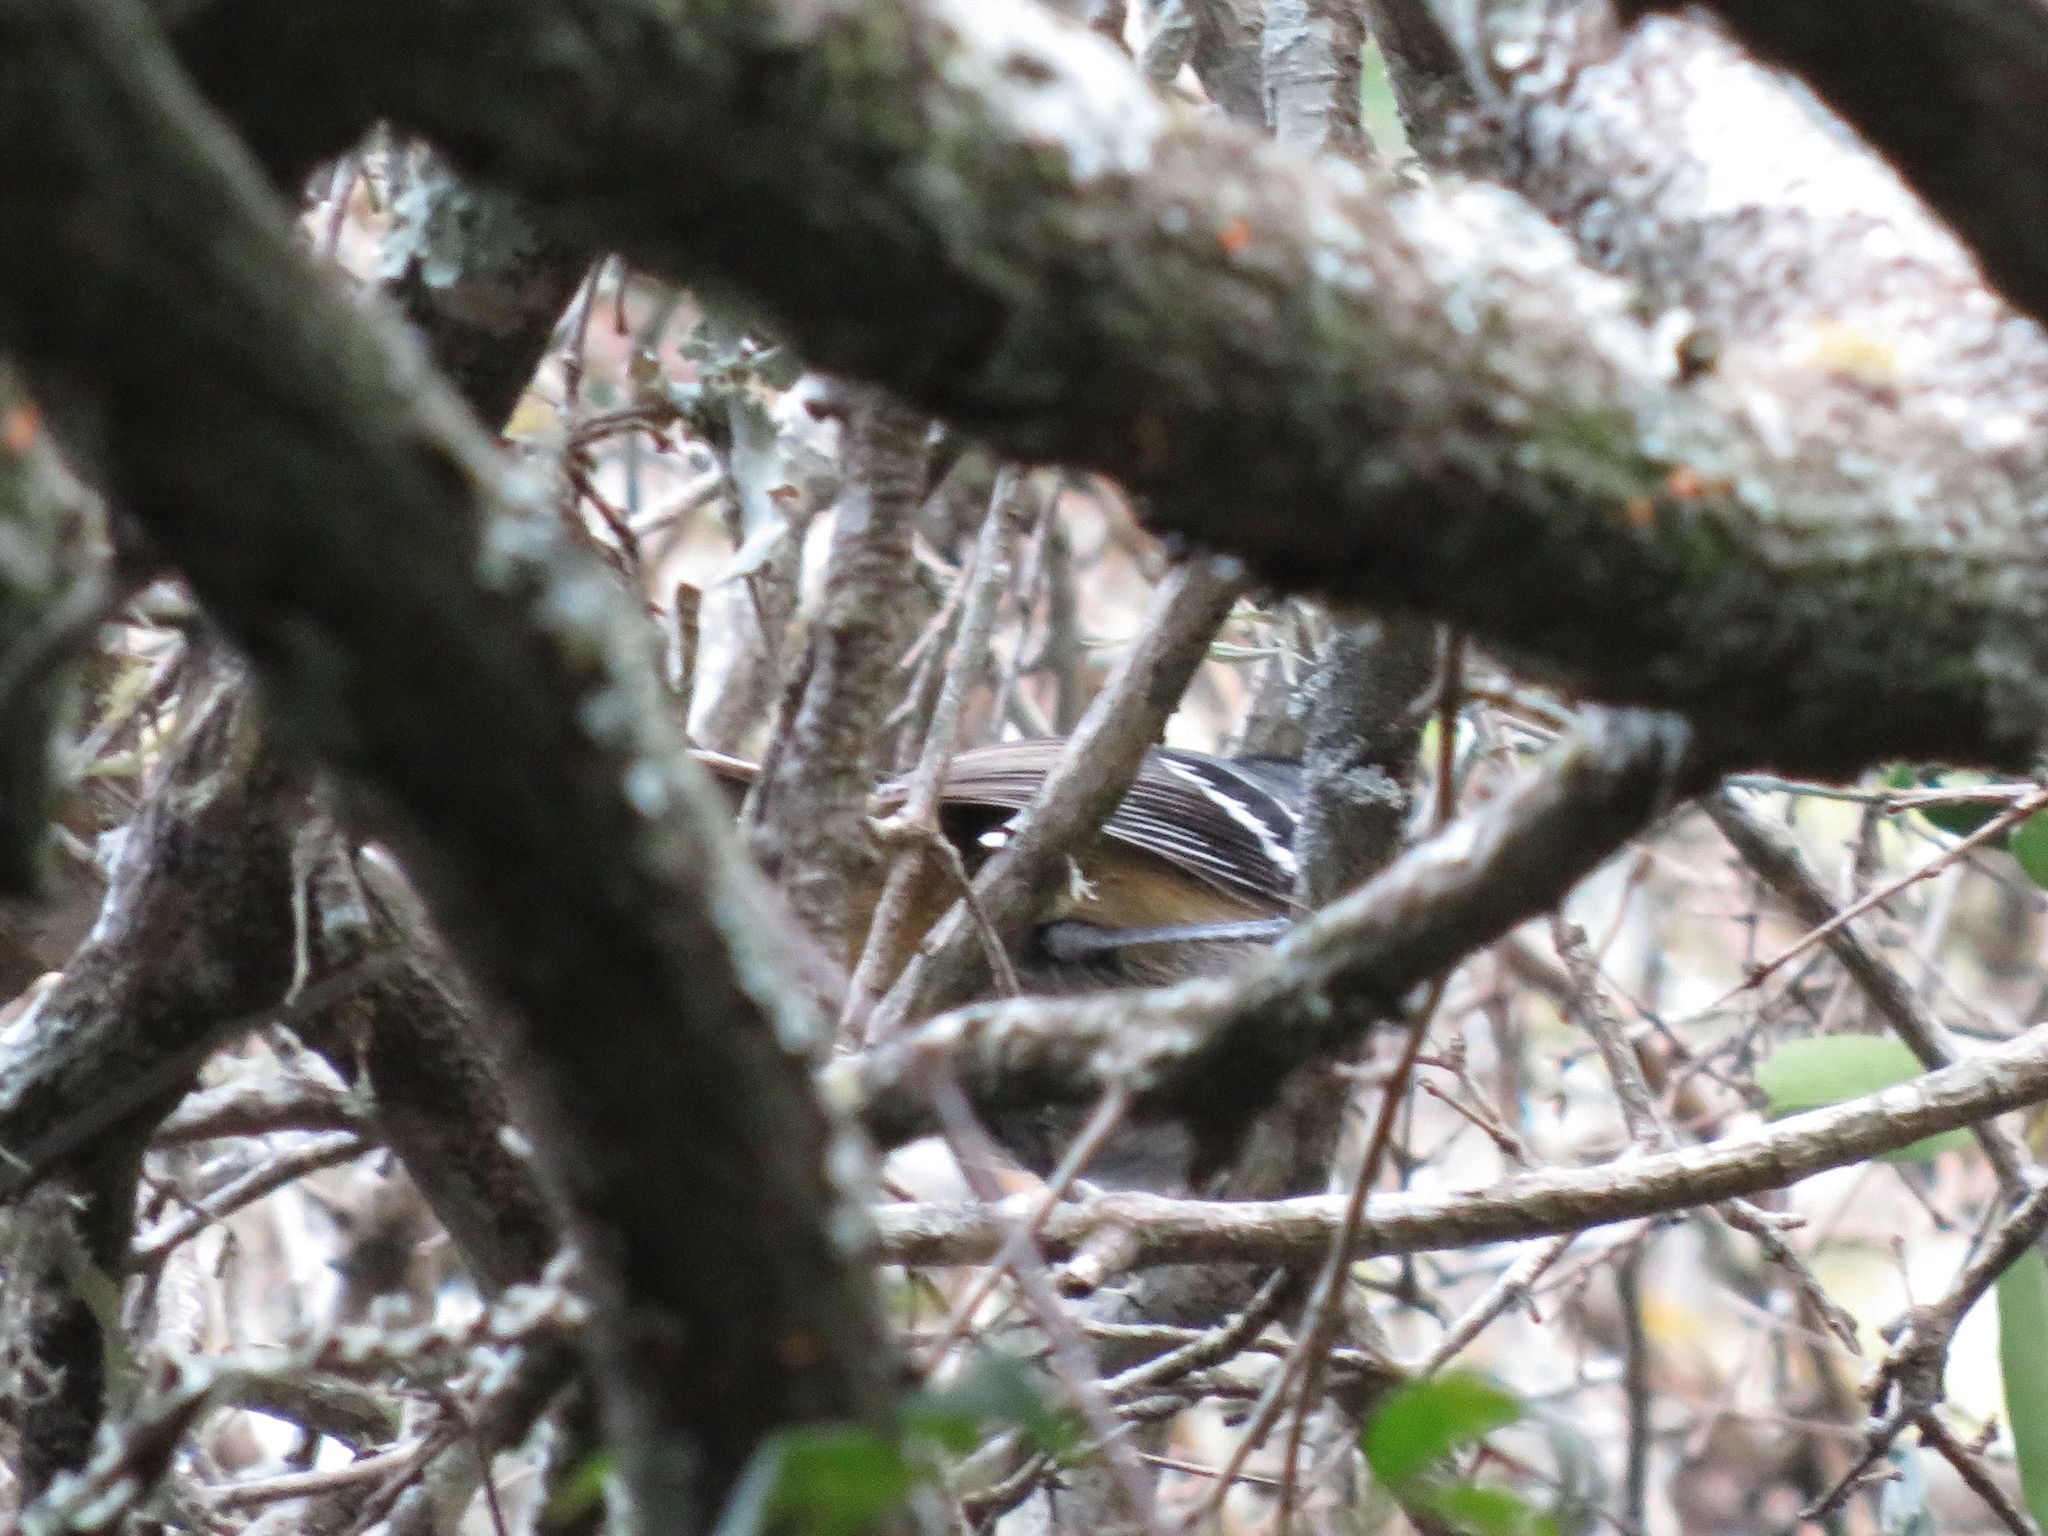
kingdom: Animalia
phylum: Chordata
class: Aves
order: Passeriformes
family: Thamnophilidae
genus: Thamnophilus
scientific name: Thamnophilus caerulescens
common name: Variable antshrike
